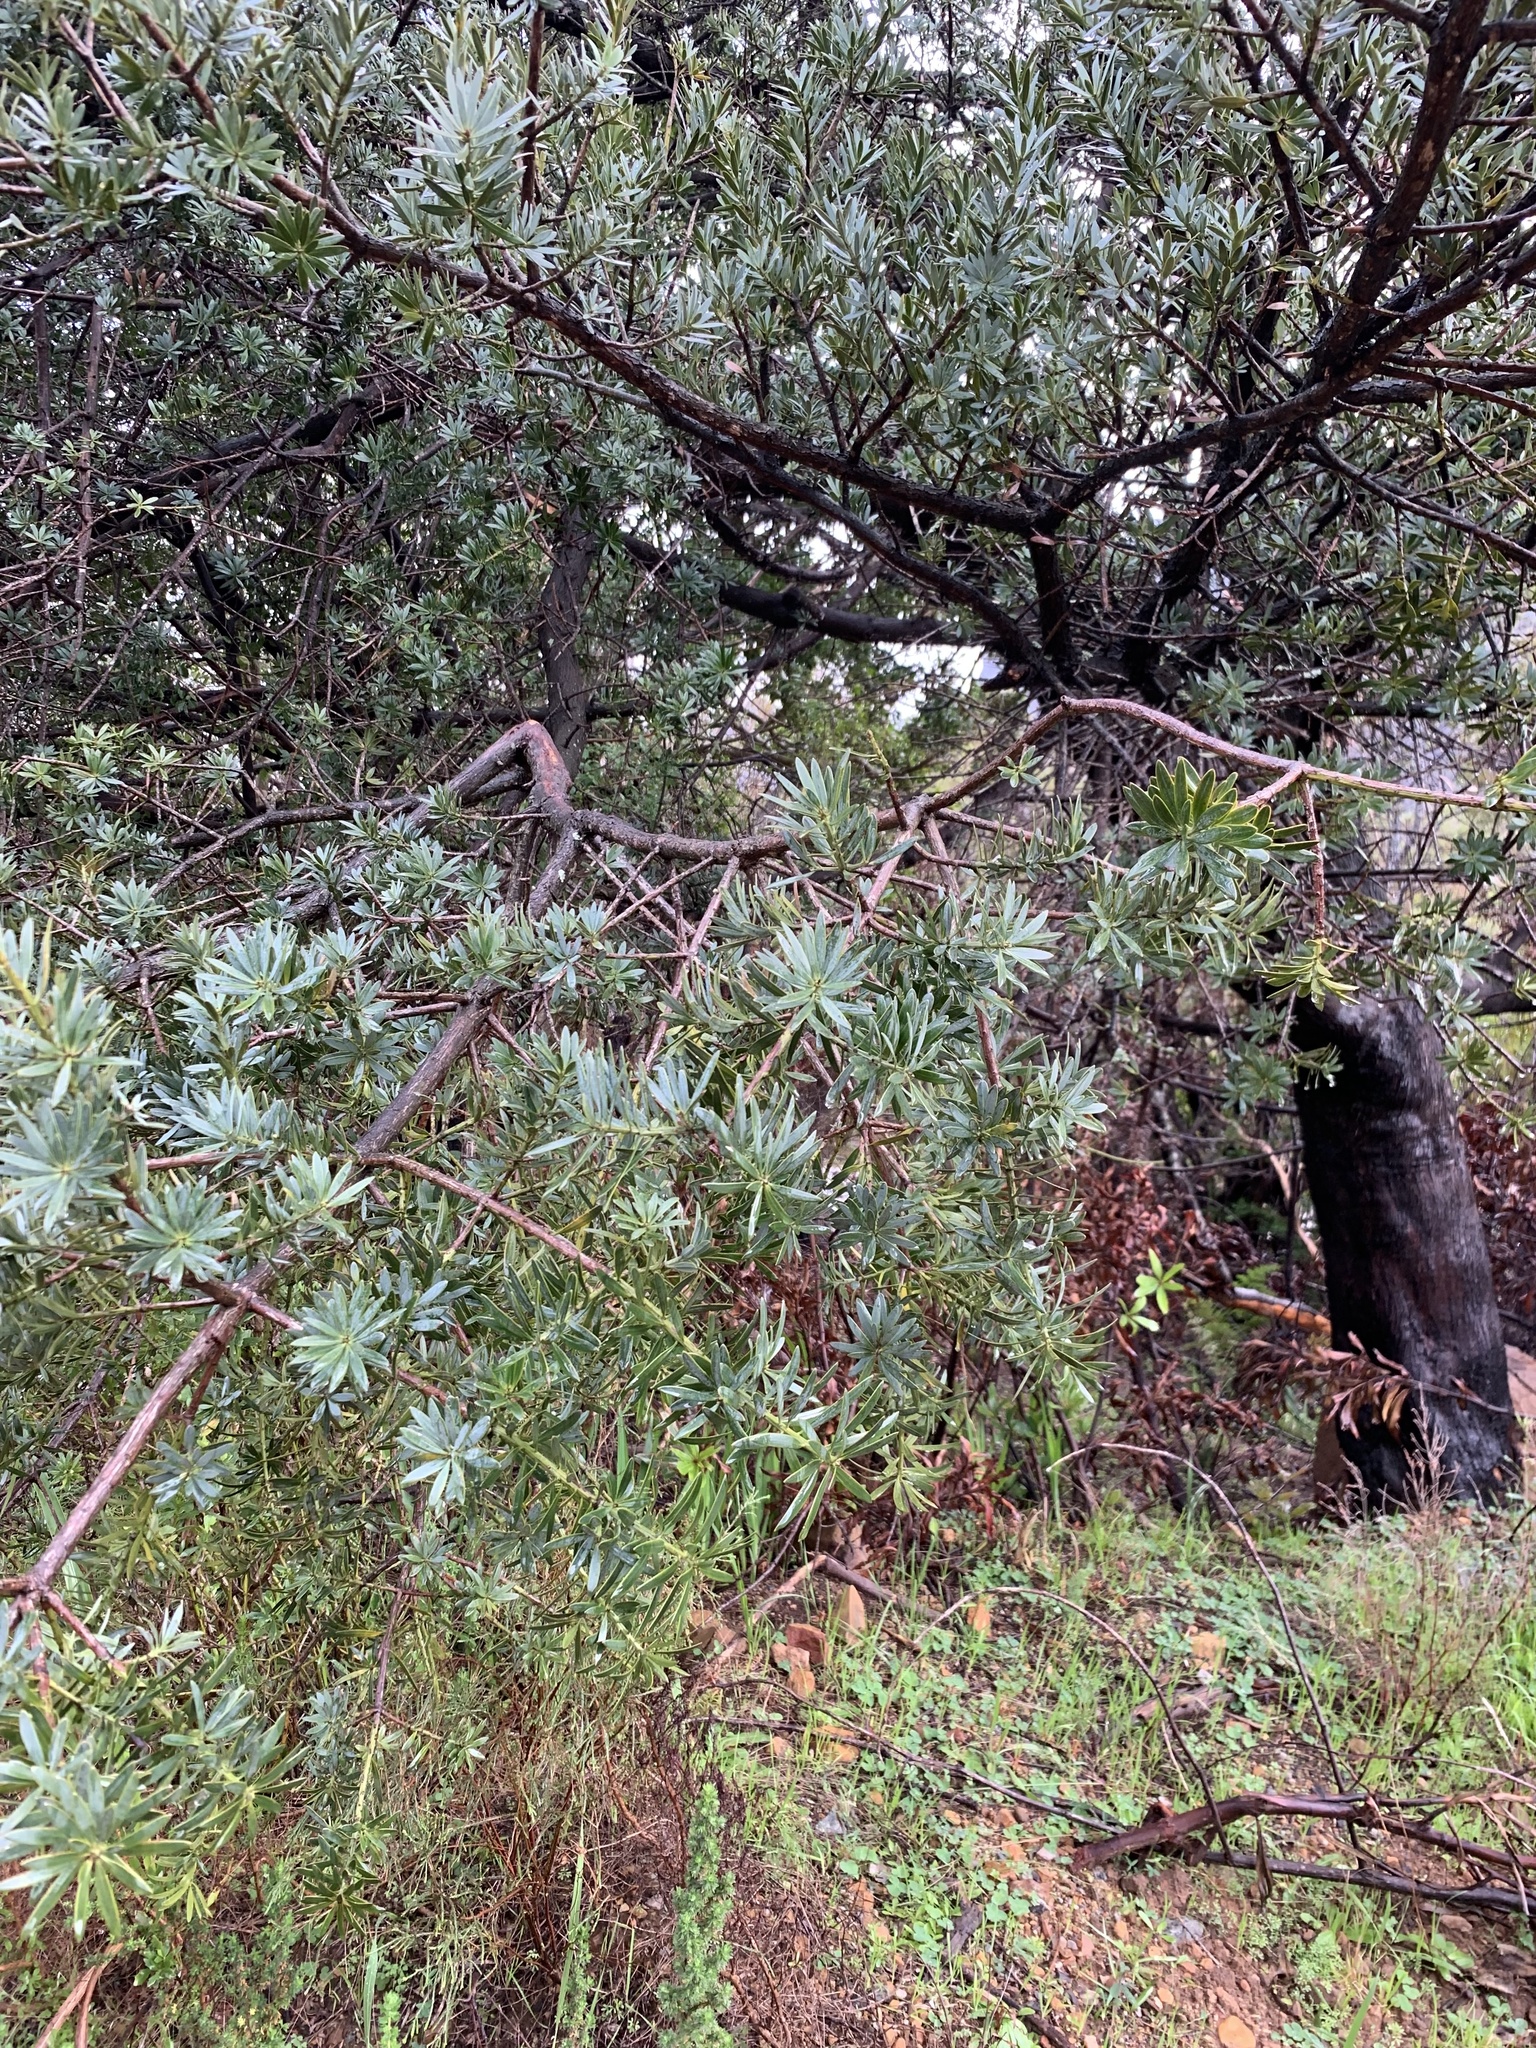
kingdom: Plantae
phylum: Tracheophyta
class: Pinopsida
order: Pinales
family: Podocarpaceae
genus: Podocarpus
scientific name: Podocarpus latifolius
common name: True yellowwood
